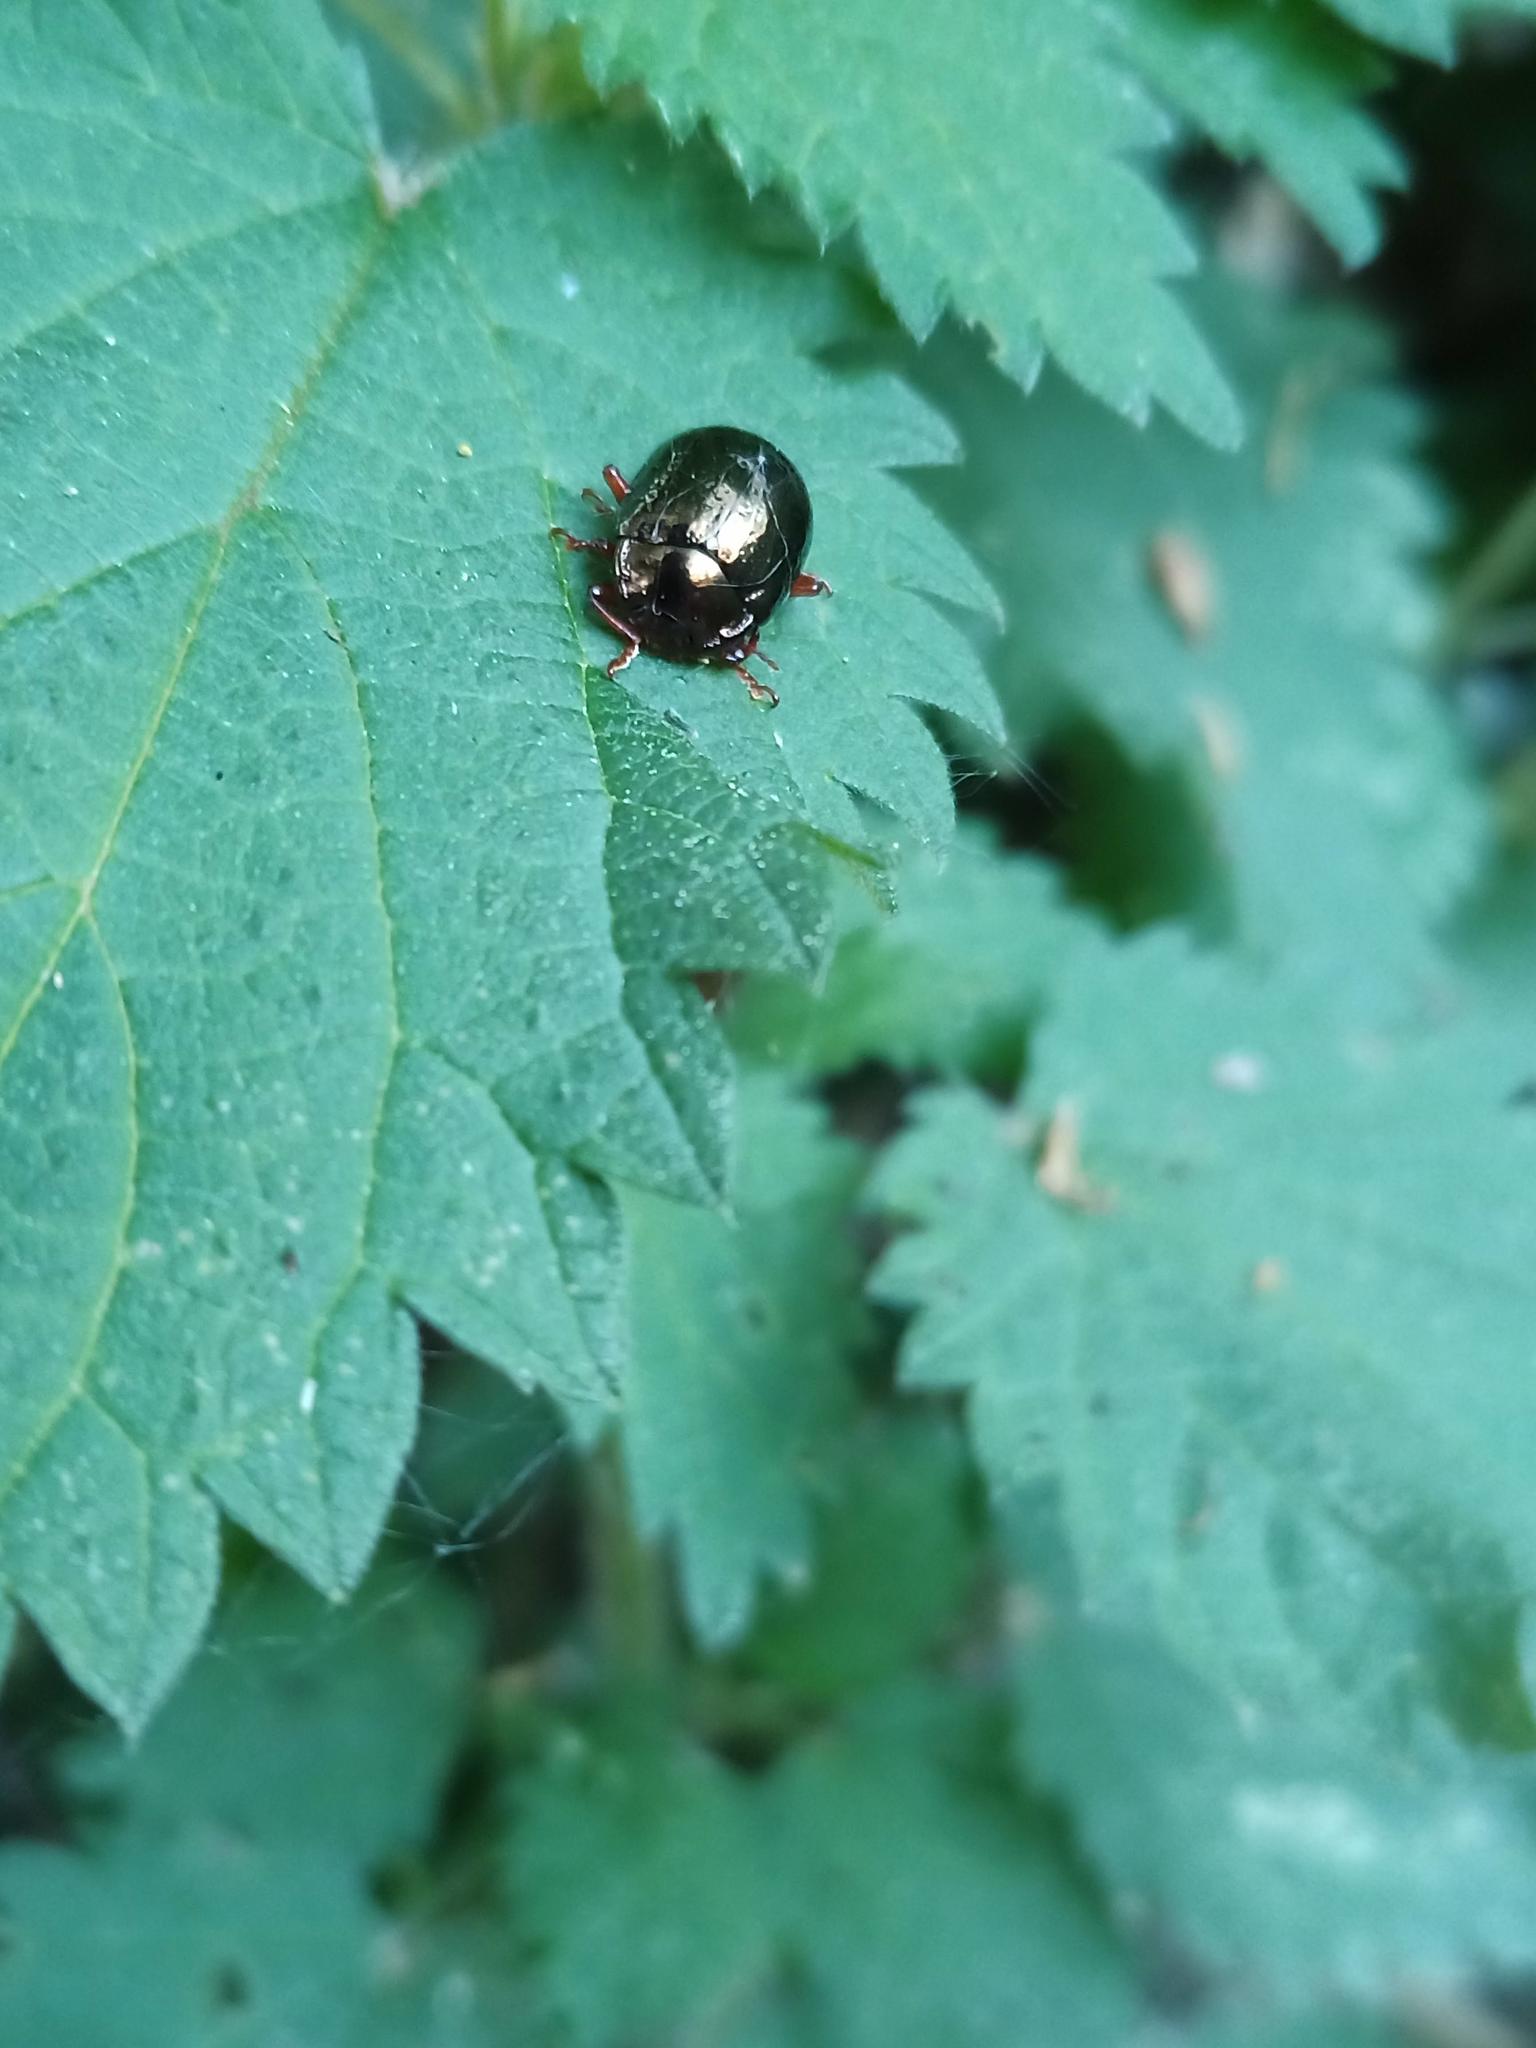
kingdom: Animalia
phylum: Arthropoda
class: Insecta
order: Coleoptera
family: Chrysomelidae
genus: Chrysolina
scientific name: Chrysolina bankii
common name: Leaf beetle
